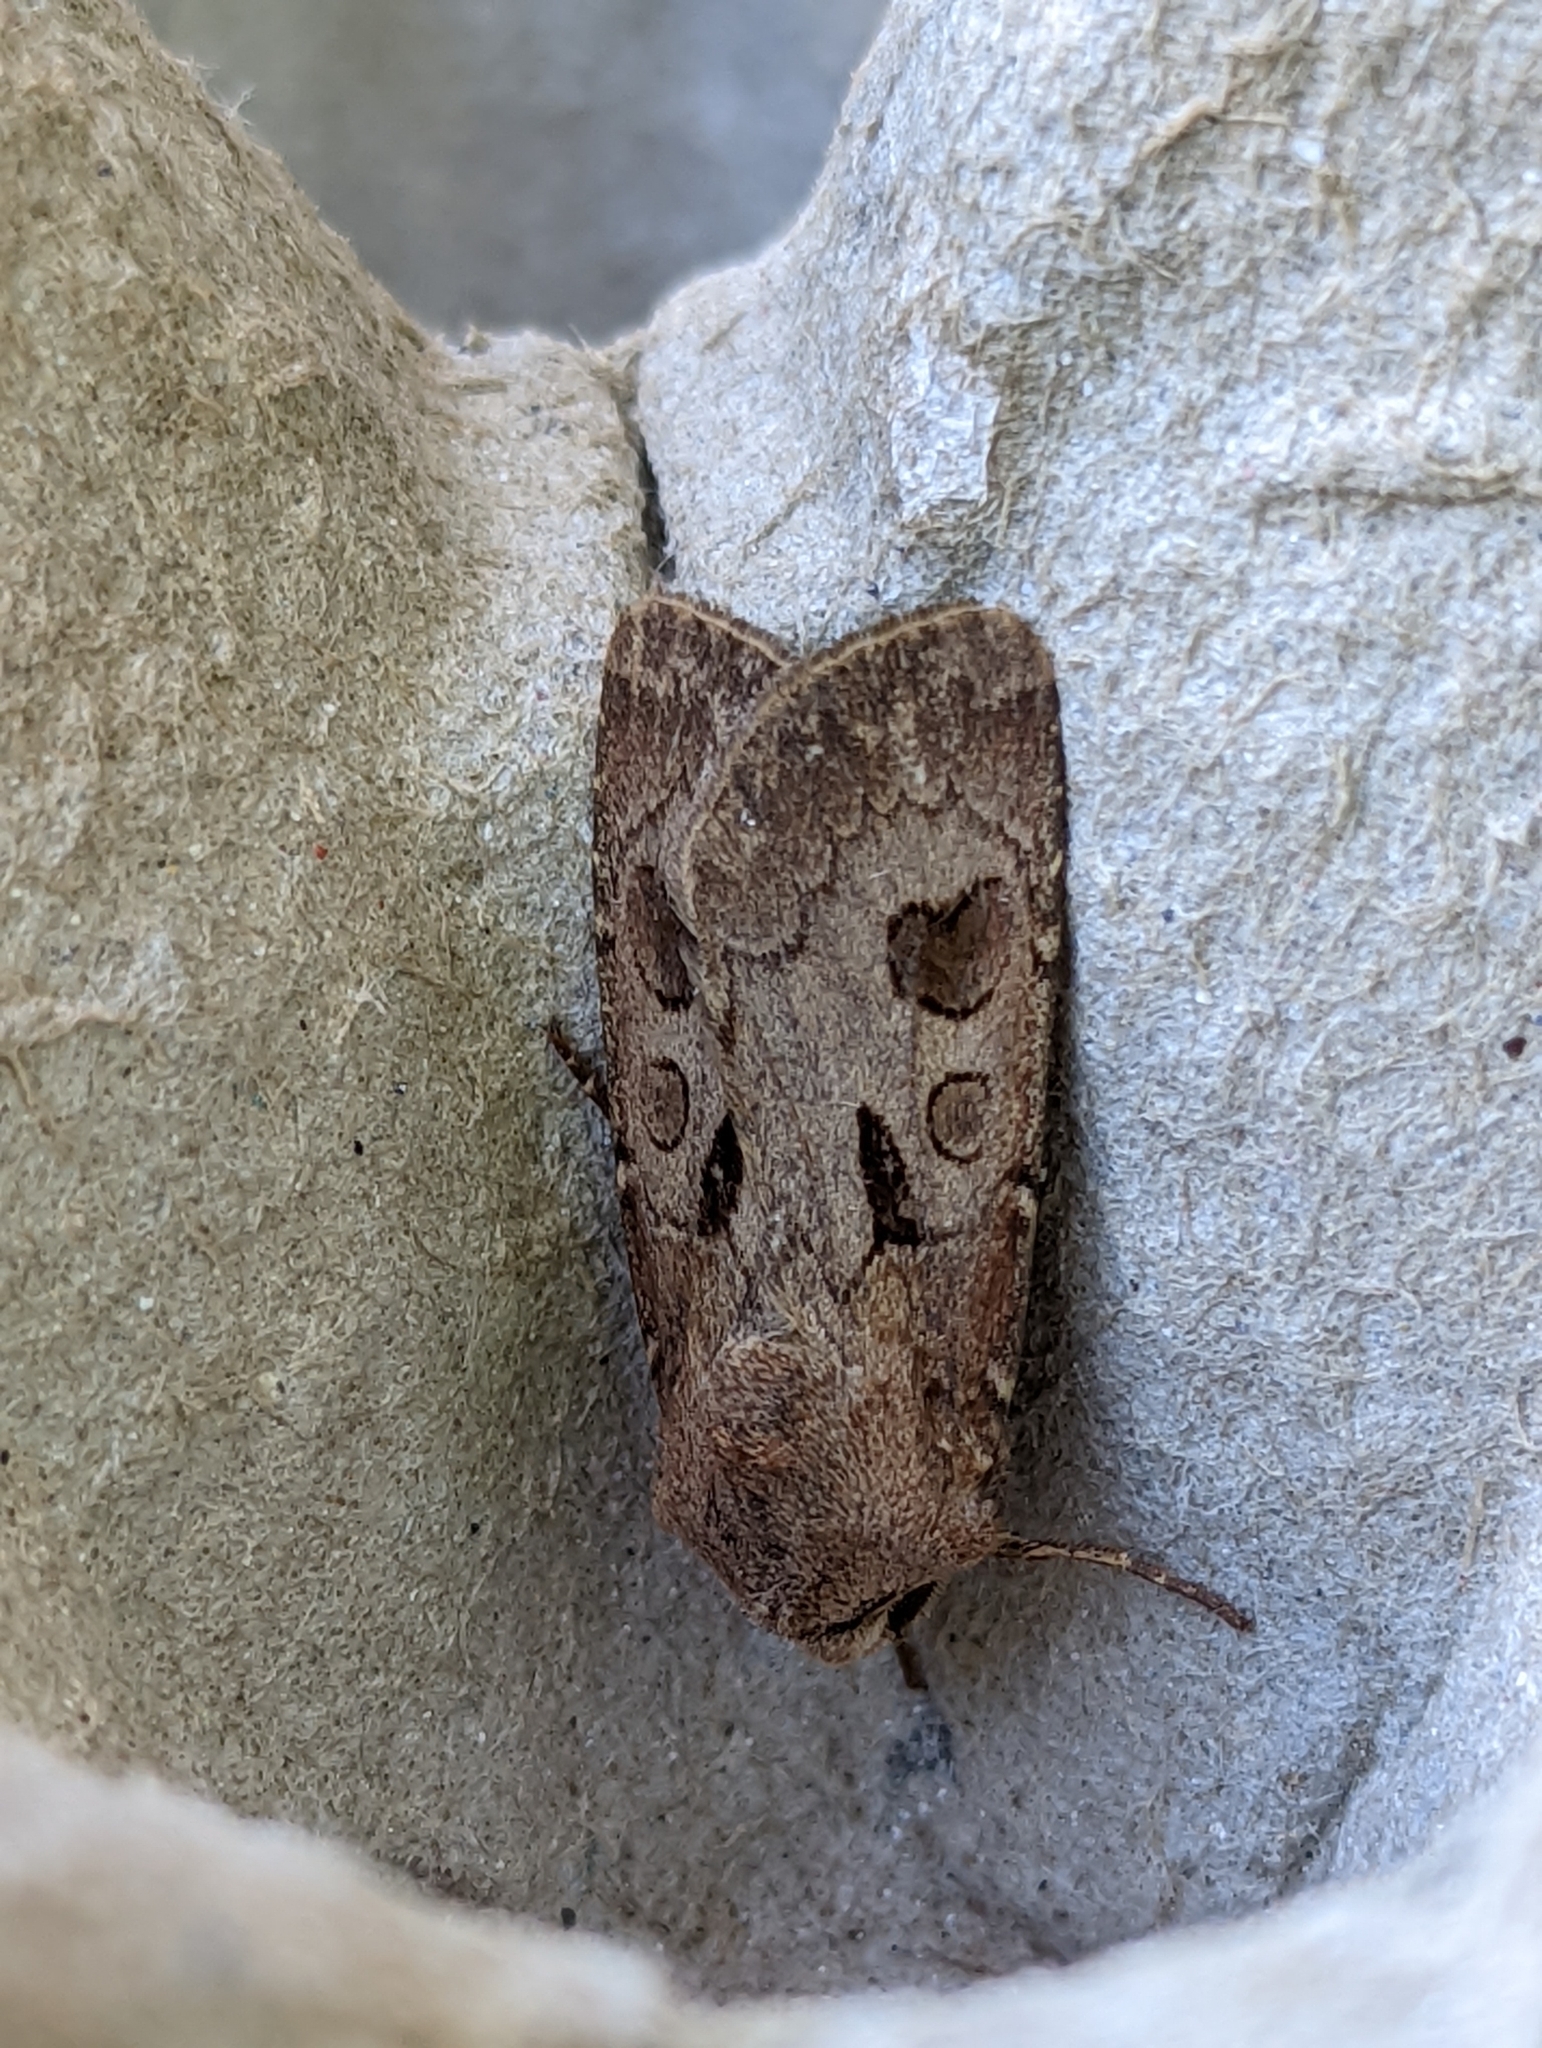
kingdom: Animalia
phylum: Arthropoda
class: Insecta
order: Lepidoptera
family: Noctuidae
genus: Agrotis
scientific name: Agrotis exclamationis
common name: Heart and dart
